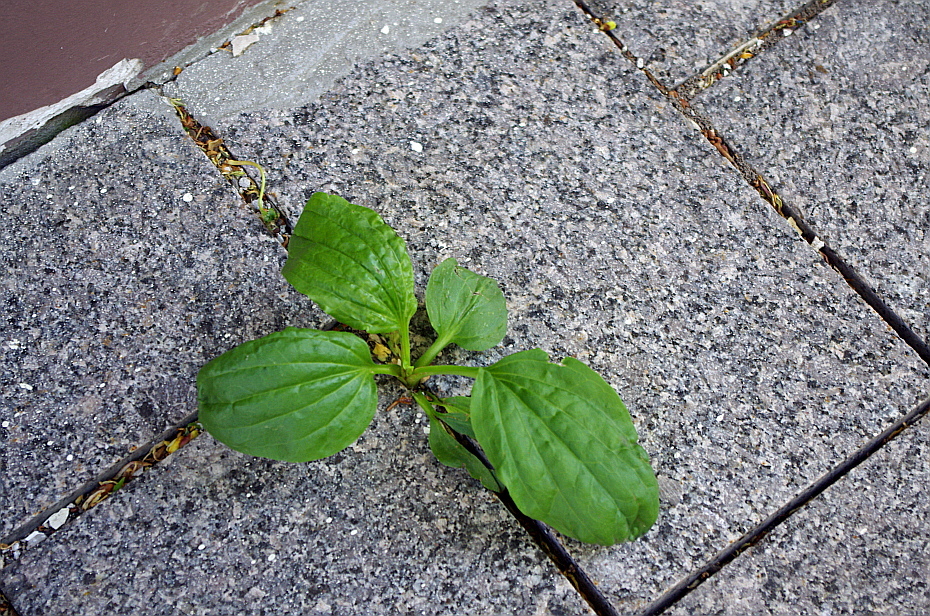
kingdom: Plantae
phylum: Tracheophyta
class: Magnoliopsida
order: Lamiales
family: Plantaginaceae
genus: Plantago
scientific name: Plantago major
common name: Common plantain
